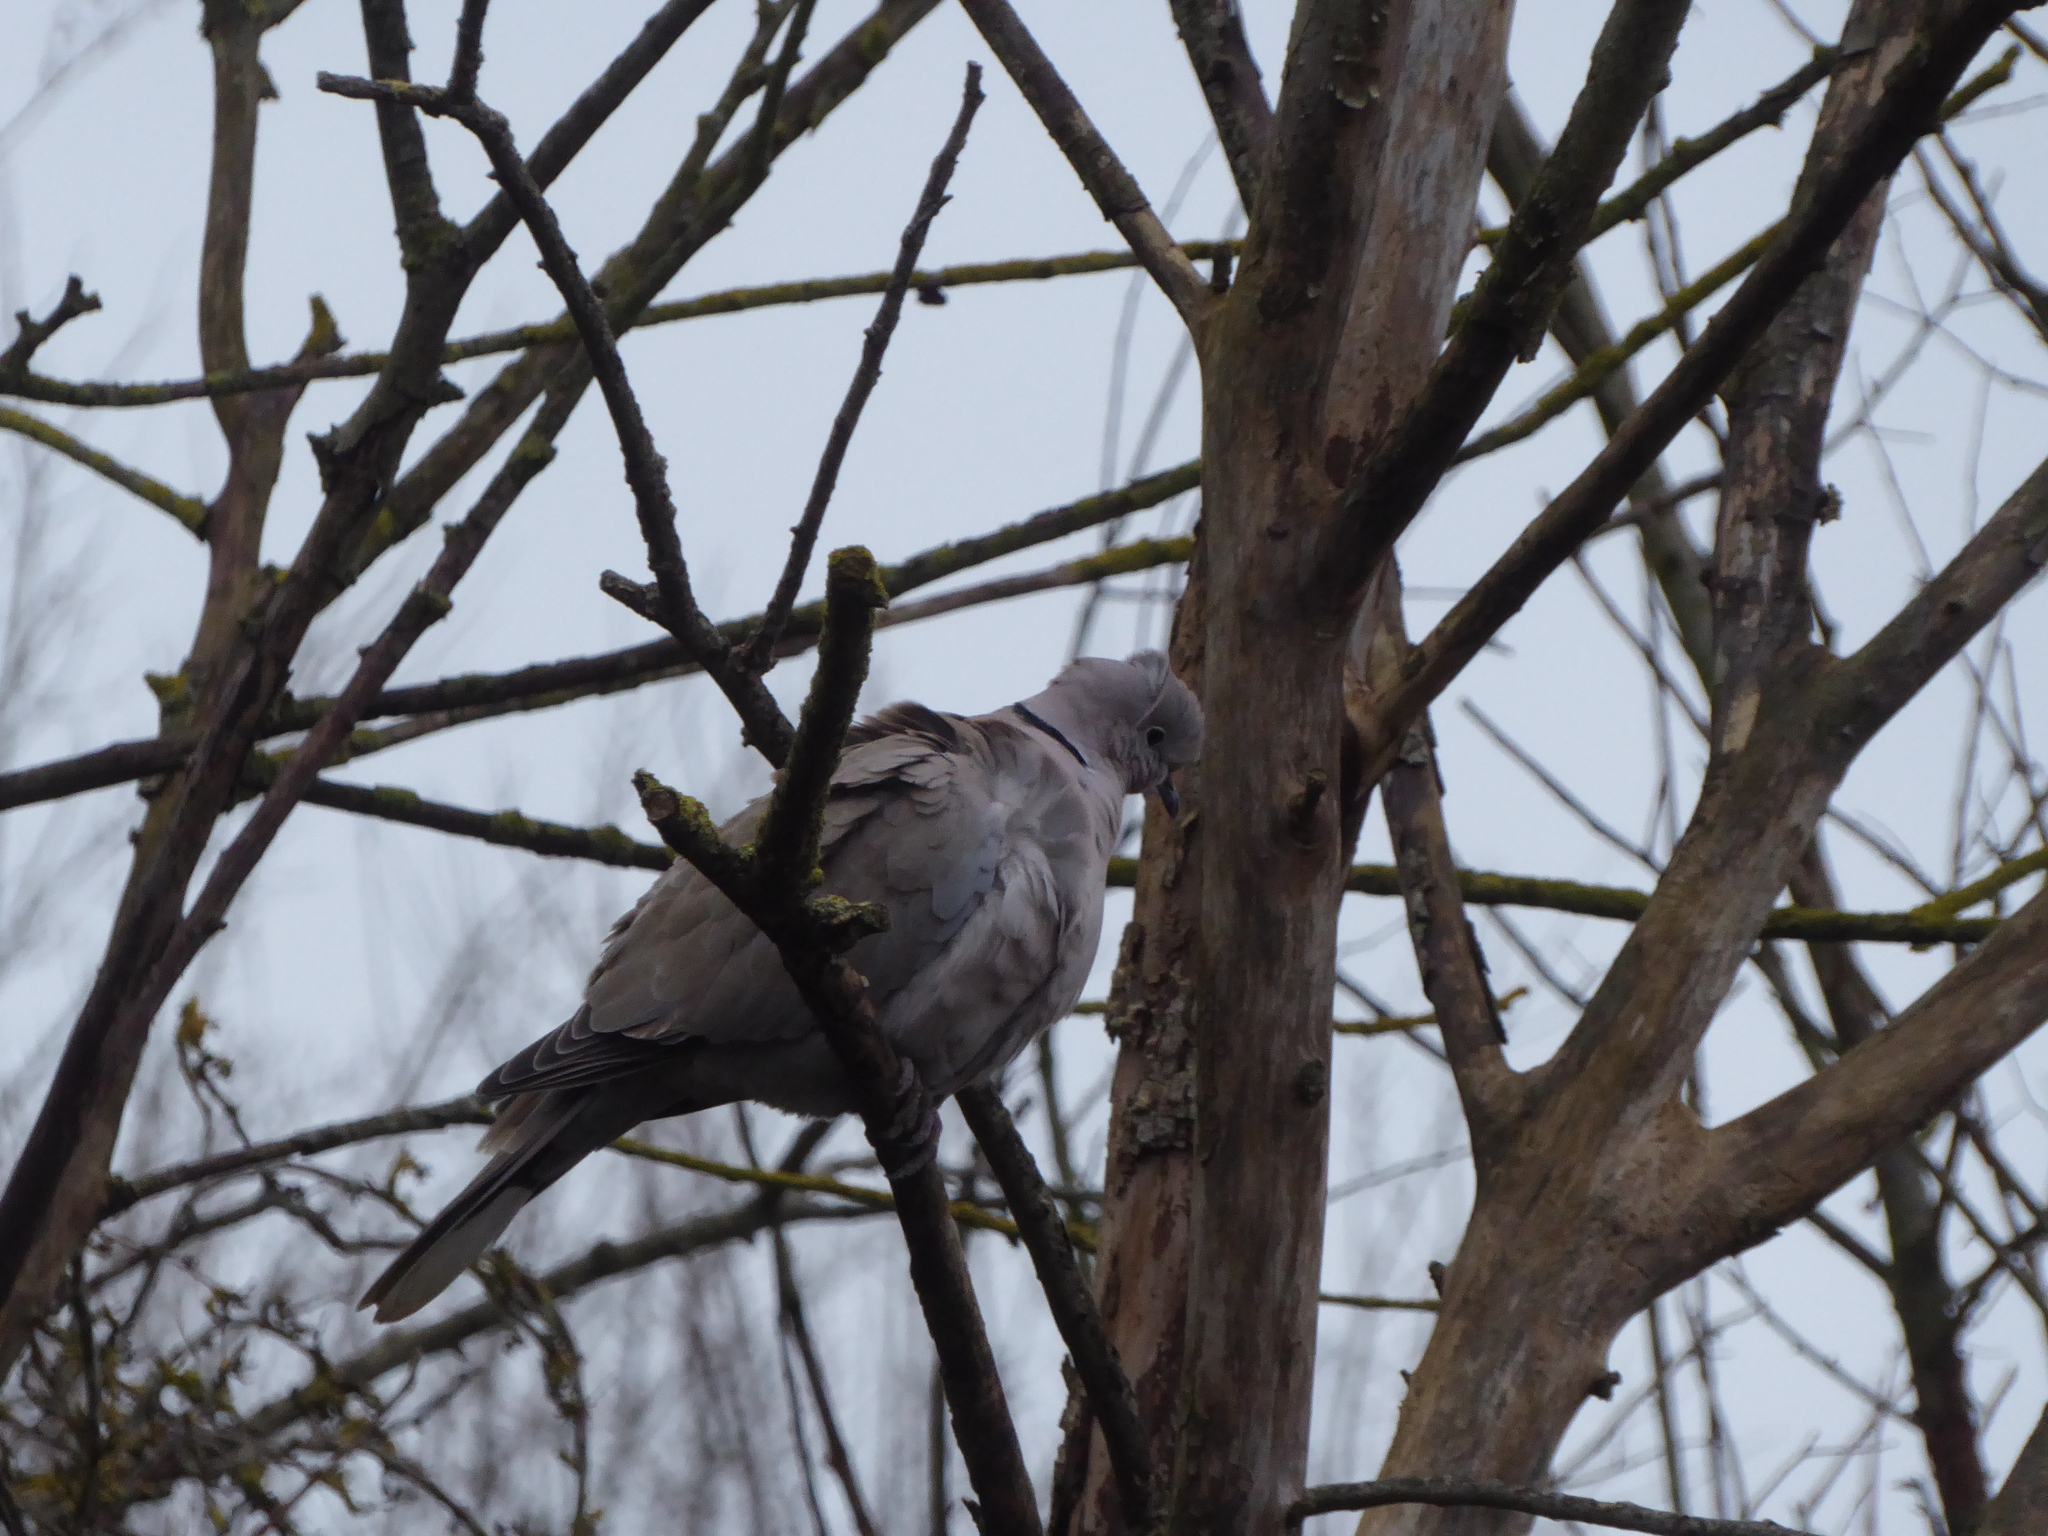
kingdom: Animalia
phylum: Chordata
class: Aves
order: Columbiformes
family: Columbidae
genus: Streptopelia
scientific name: Streptopelia decaocto
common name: Eurasian collared dove
